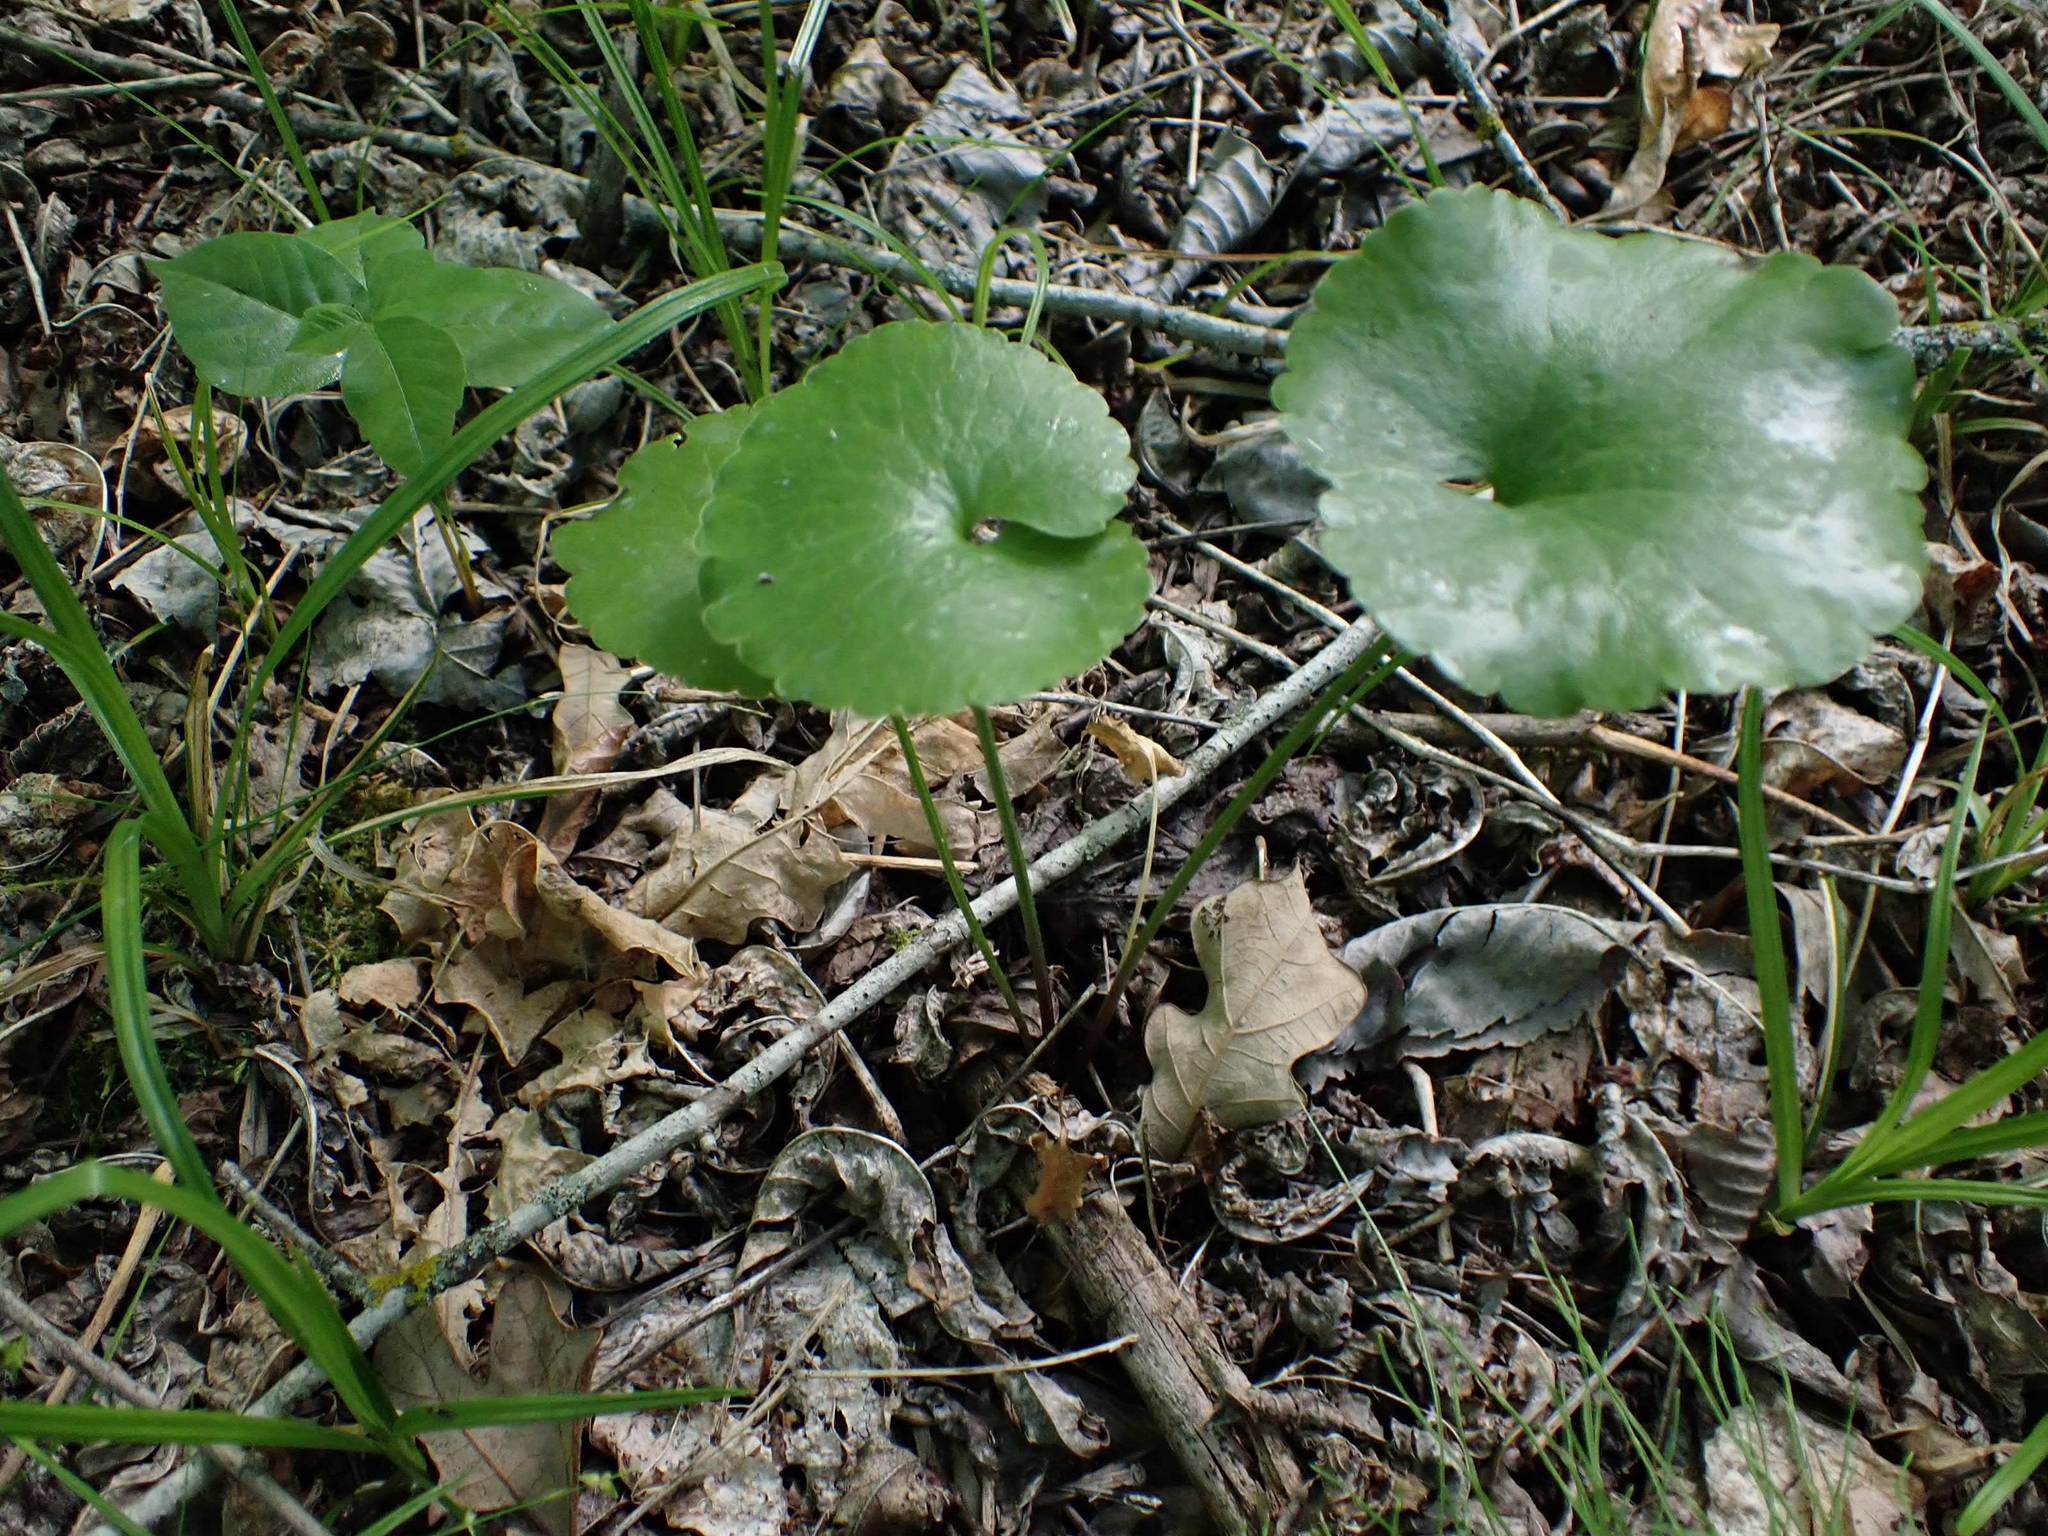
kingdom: Plantae
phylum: Tracheophyta
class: Magnoliopsida
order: Ranunculales
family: Ranunculaceae
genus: Ranunculus
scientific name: Ranunculus abortivus
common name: Early wood buttercup
